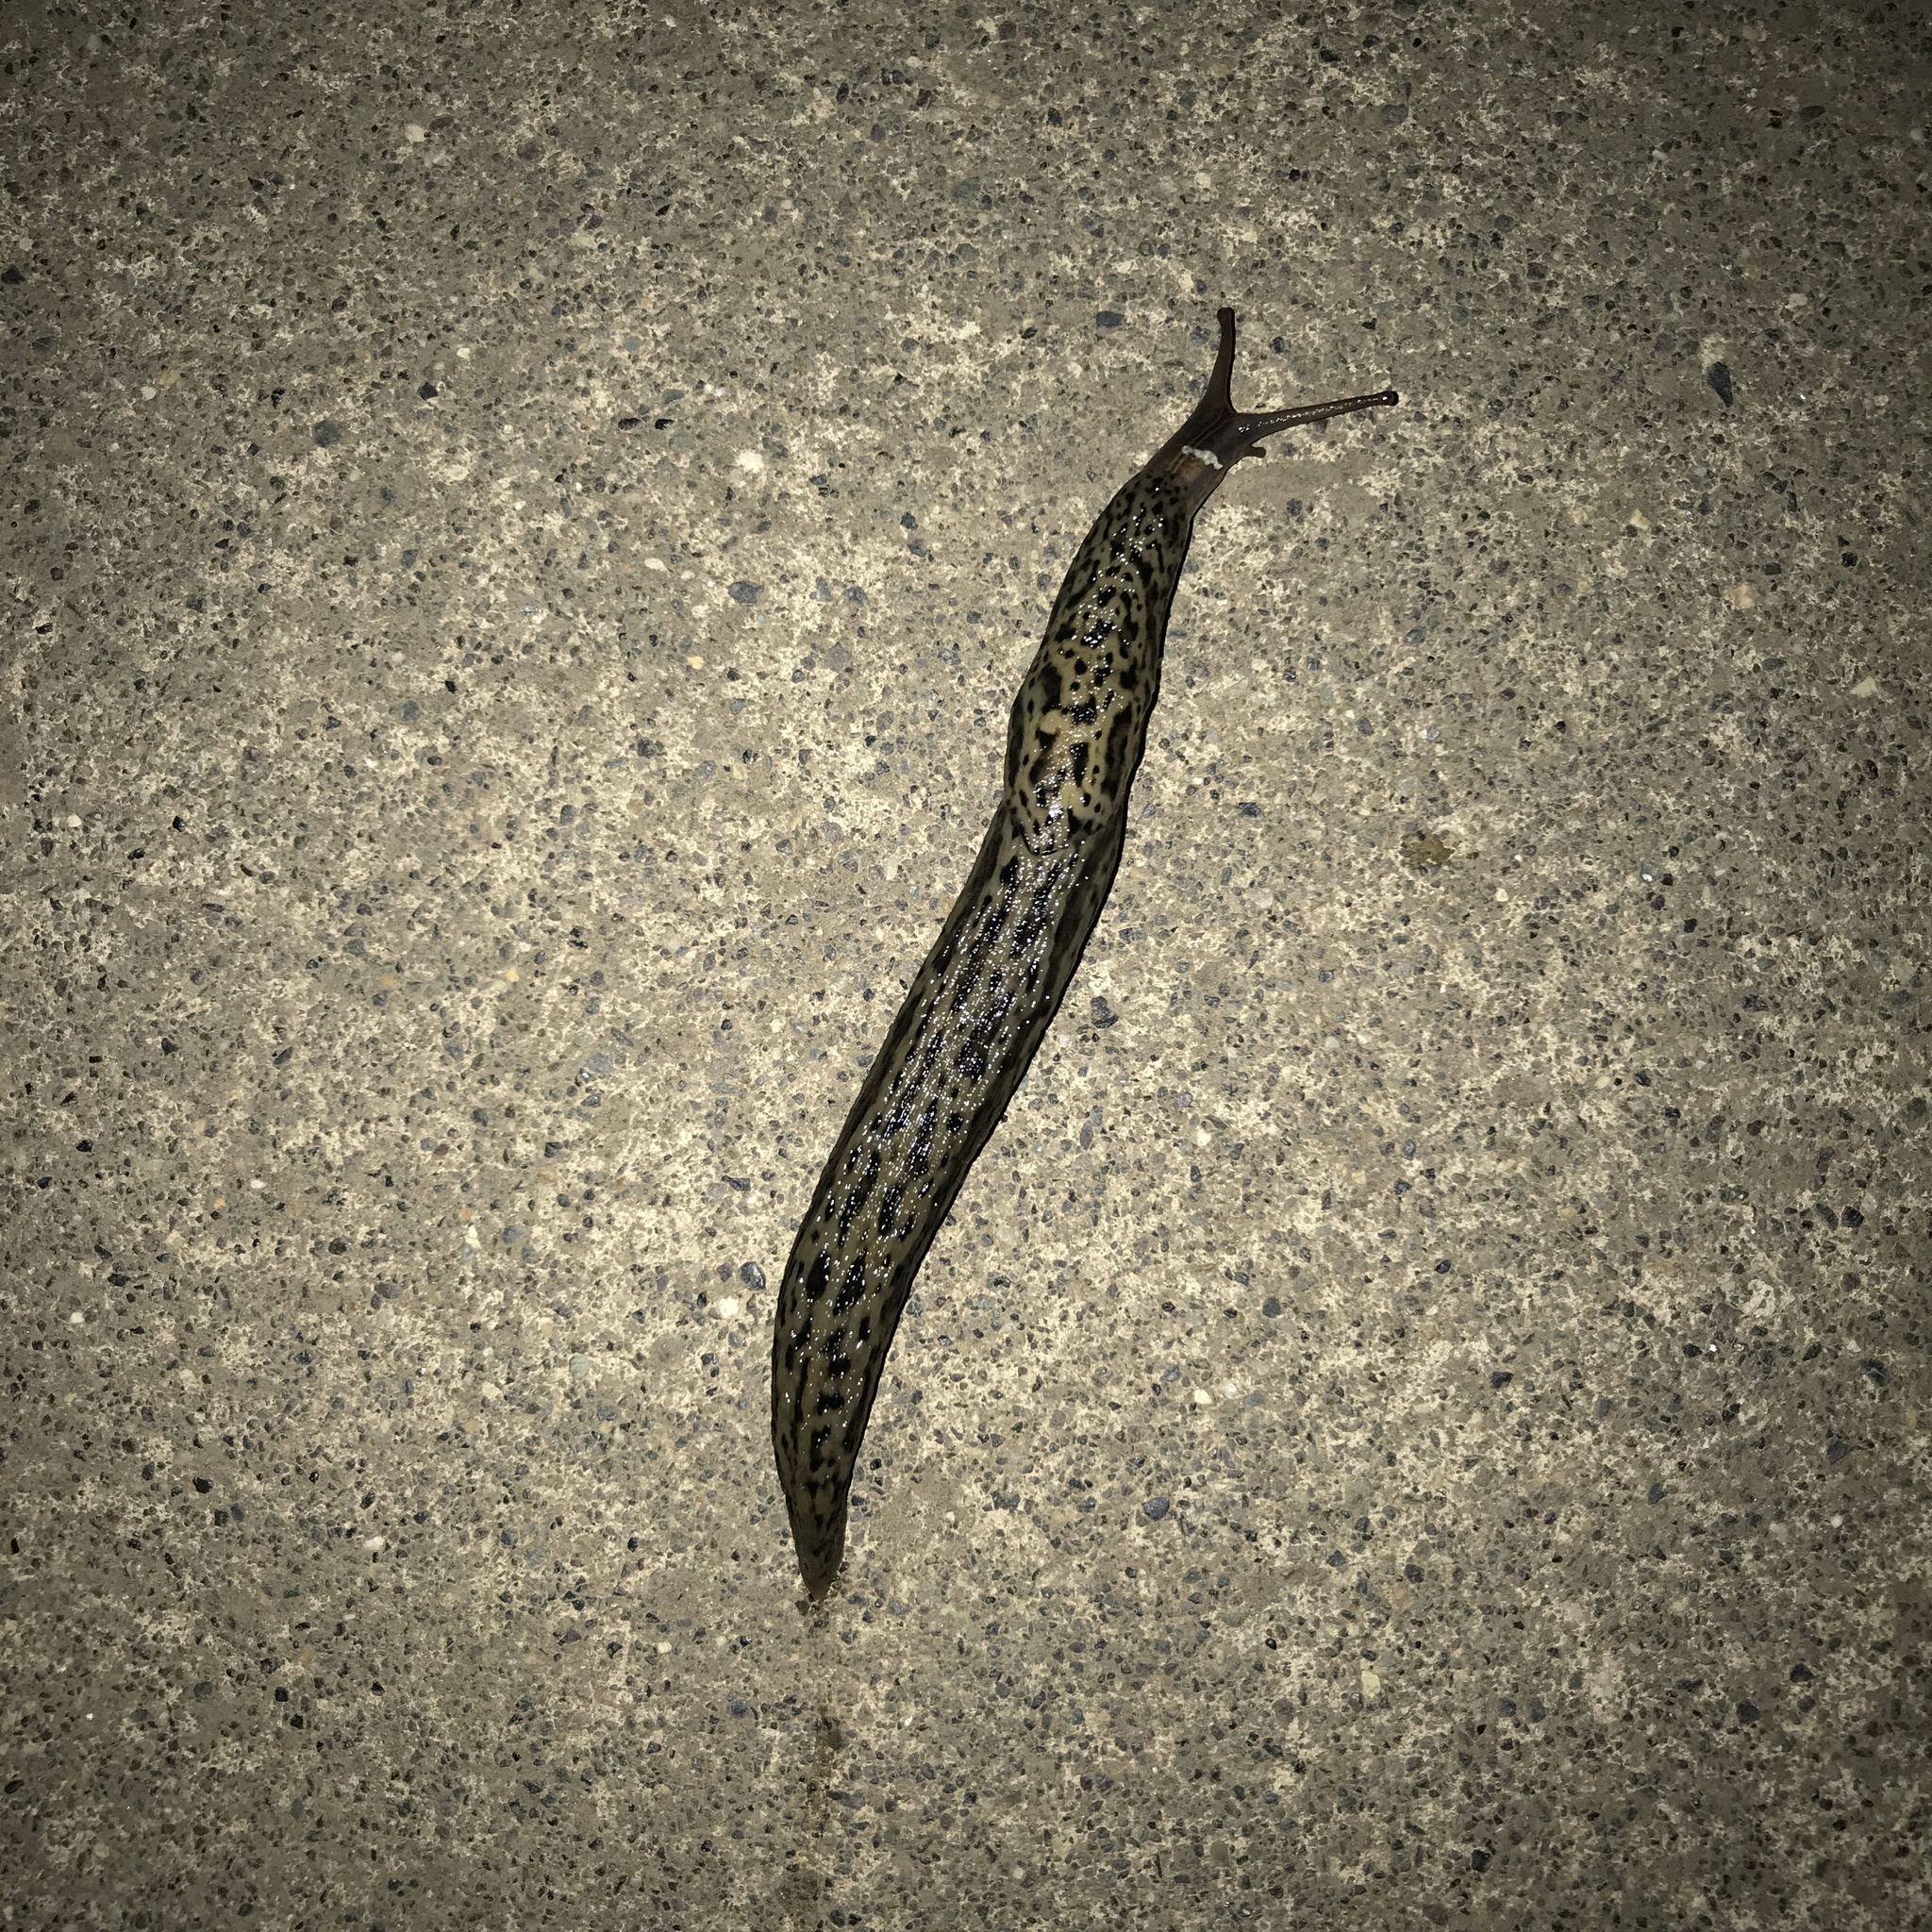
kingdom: Animalia
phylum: Mollusca
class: Gastropoda
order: Stylommatophora
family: Limacidae
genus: Limax
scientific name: Limax maximus
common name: Great grey slug
